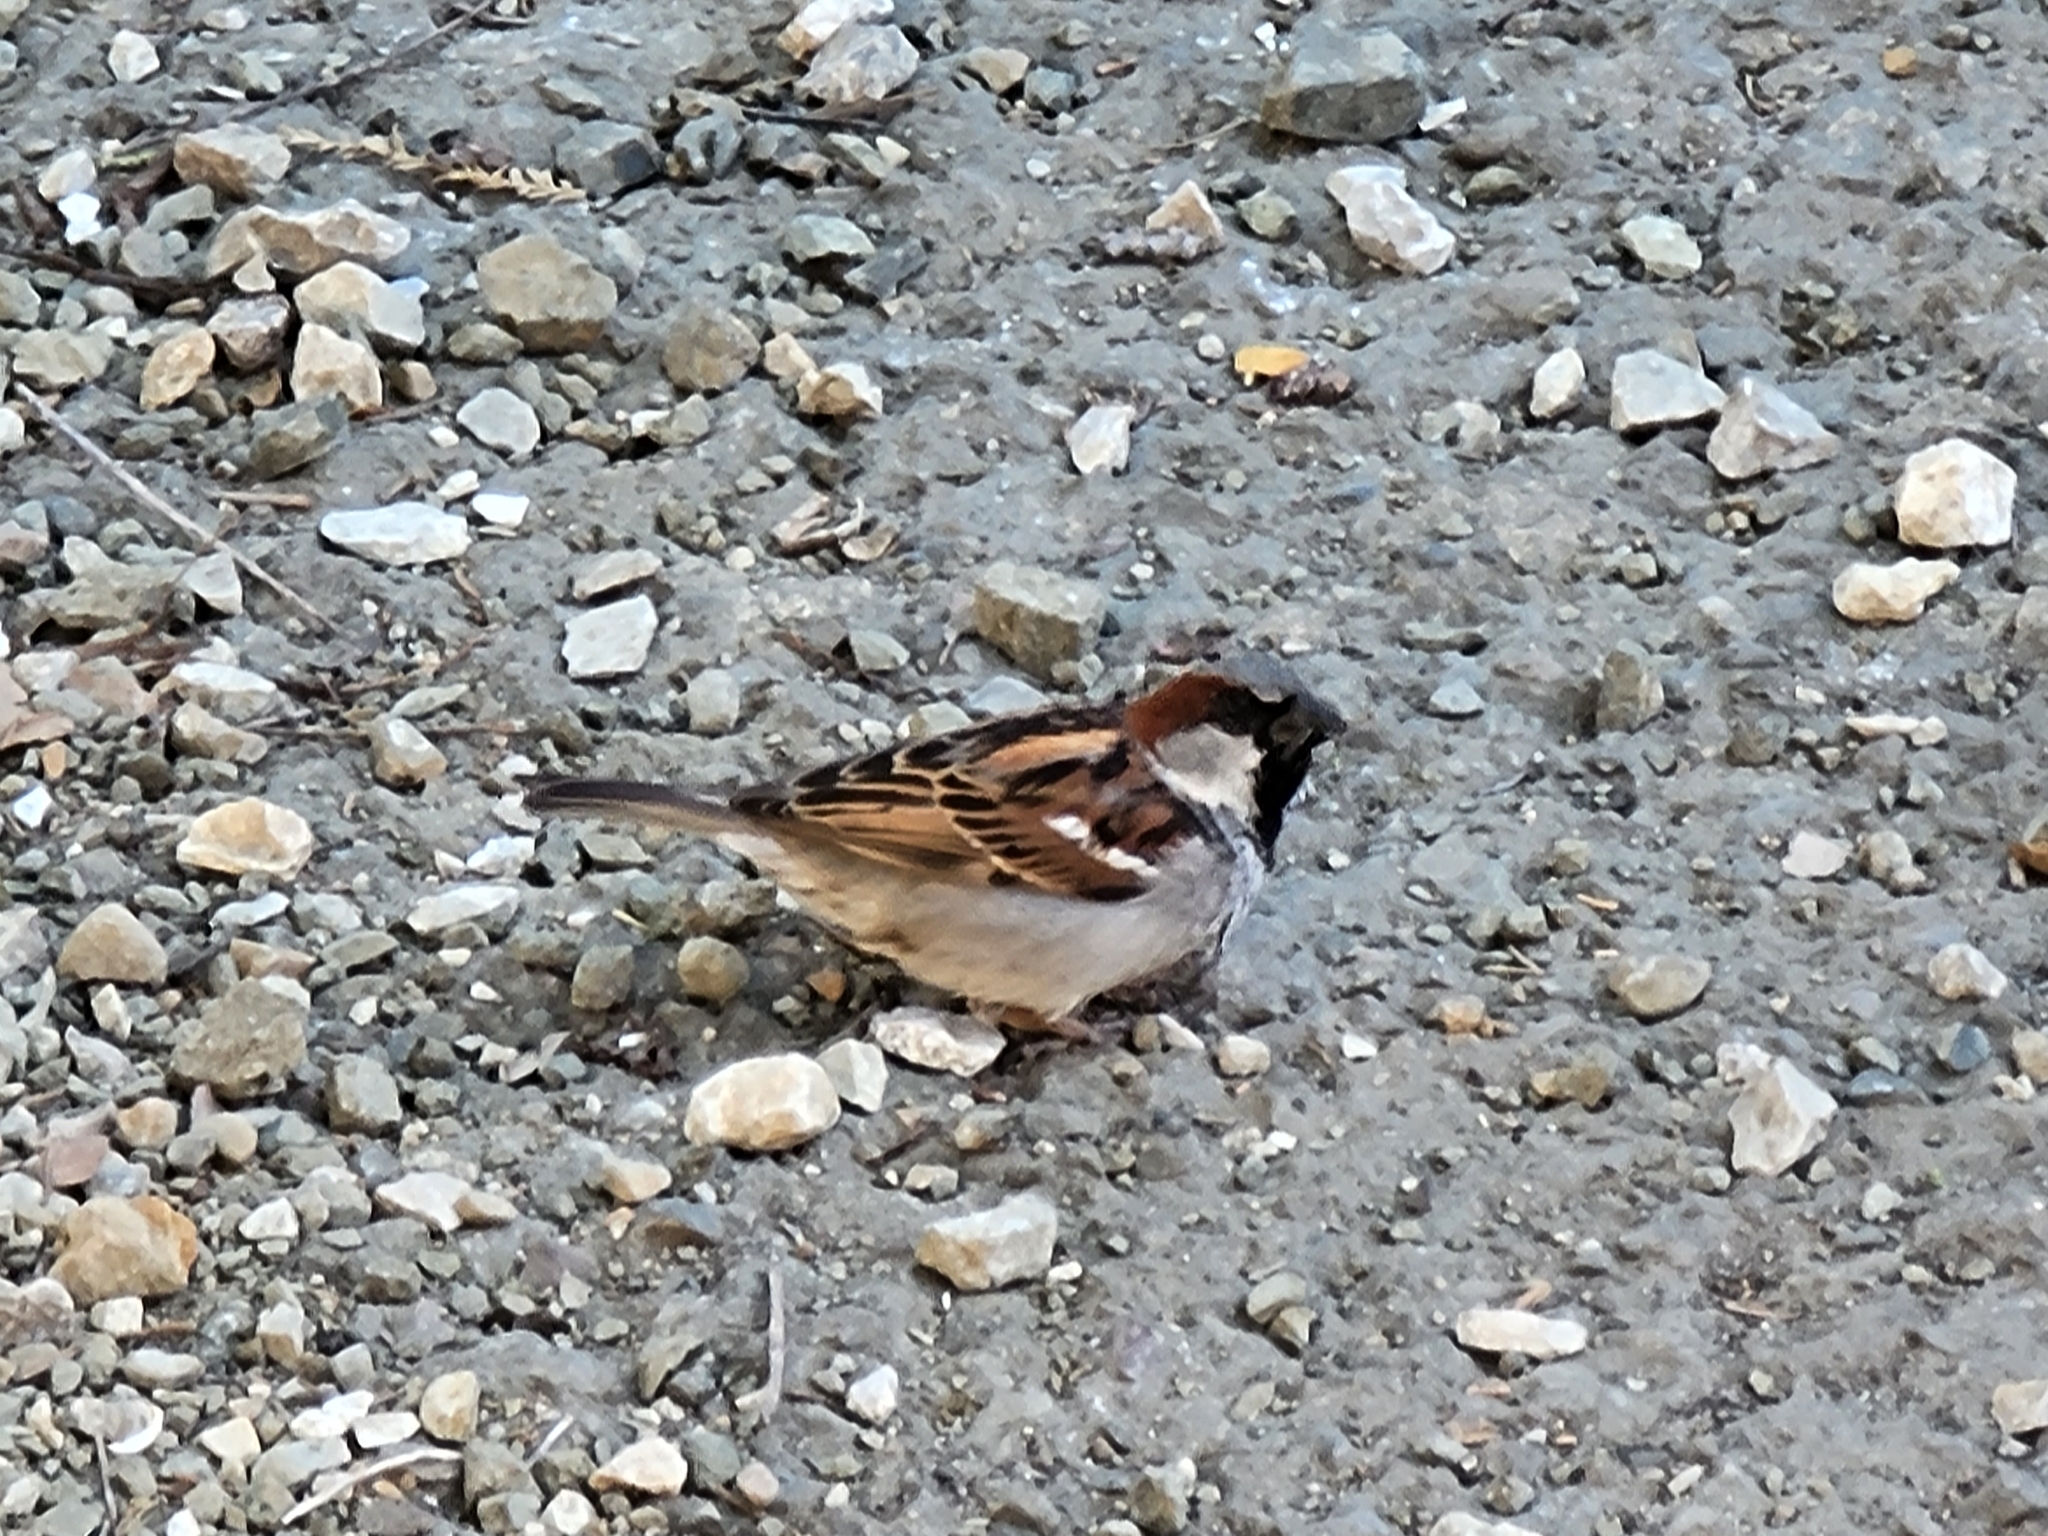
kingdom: Animalia
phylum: Chordata
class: Aves
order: Passeriformes
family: Passeridae
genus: Passer
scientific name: Passer domesticus
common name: House sparrow
